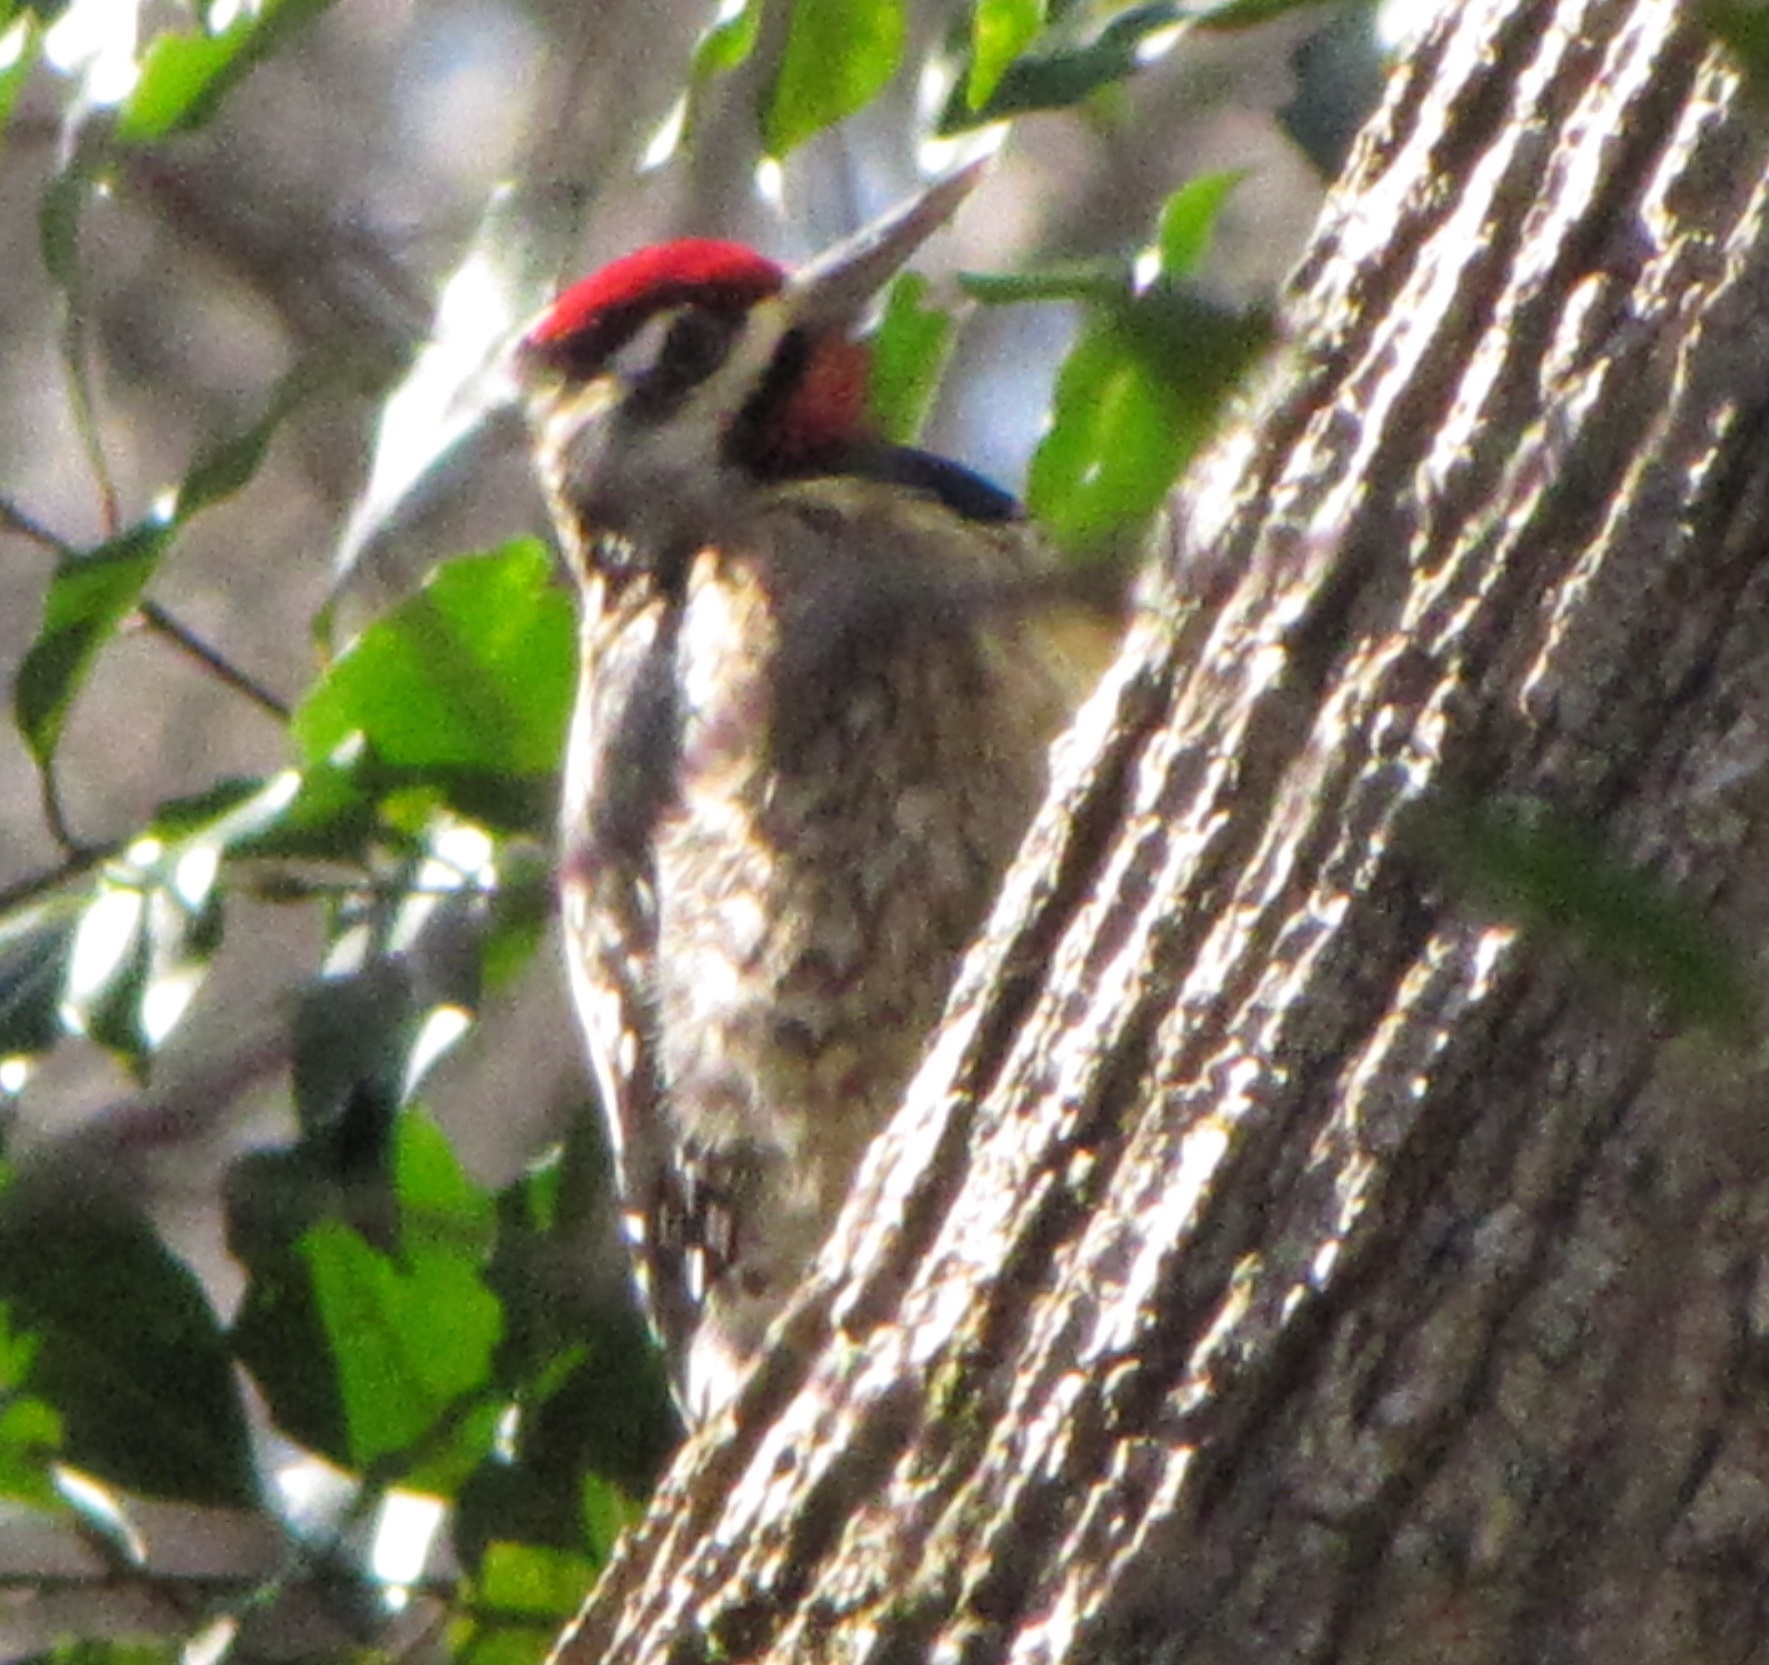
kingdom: Animalia
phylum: Chordata
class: Aves
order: Piciformes
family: Picidae
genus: Sphyrapicus
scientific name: Sphyrapicus varius
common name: Yellow-bellied sapsucker
